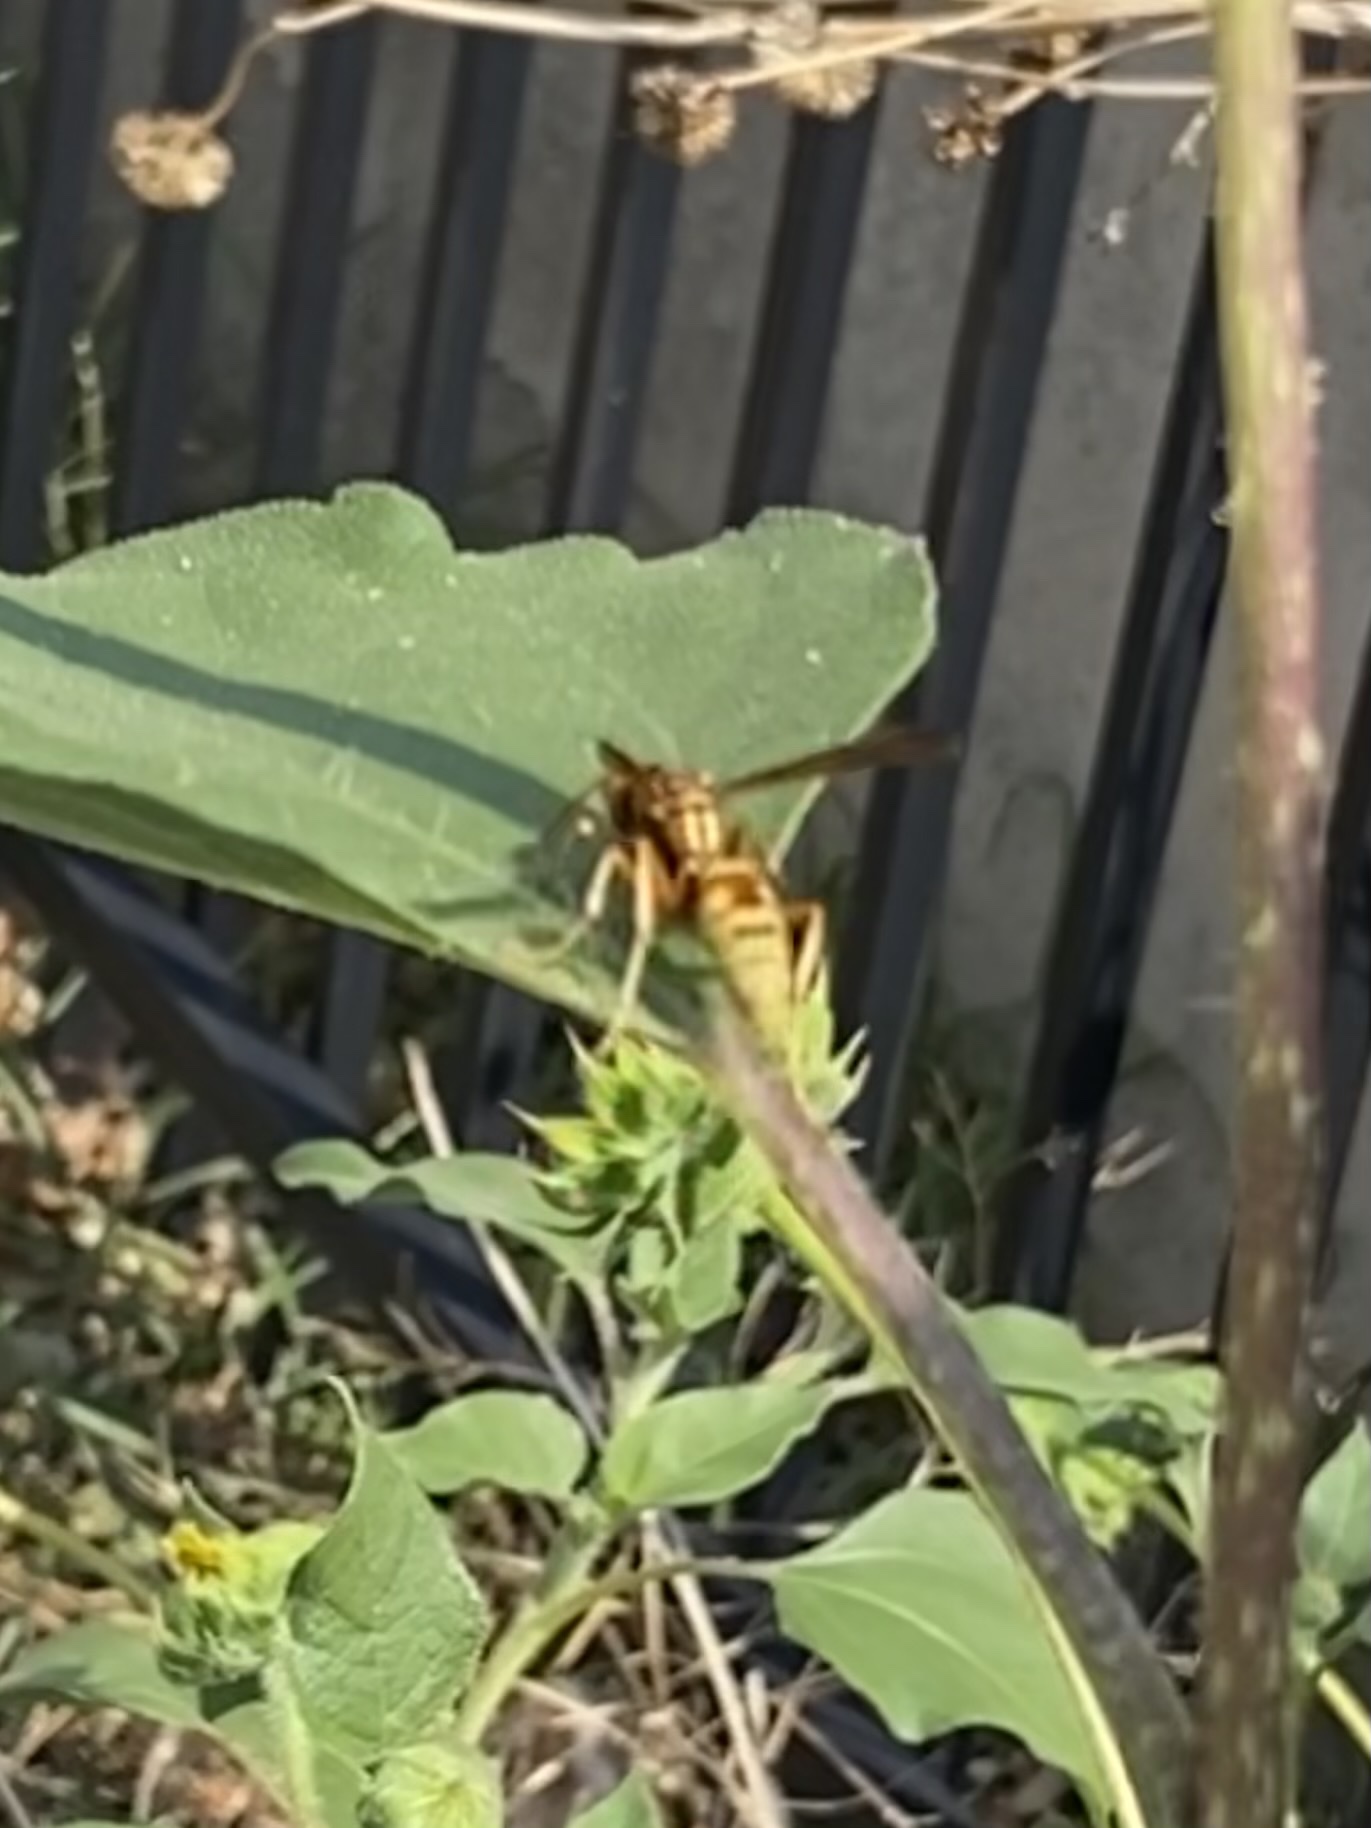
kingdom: Animalia
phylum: Arthropoda
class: Insecta
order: Hymenoptera
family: Eumenidae
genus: Polistes
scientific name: Polistes aurifer
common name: Paper wasp
